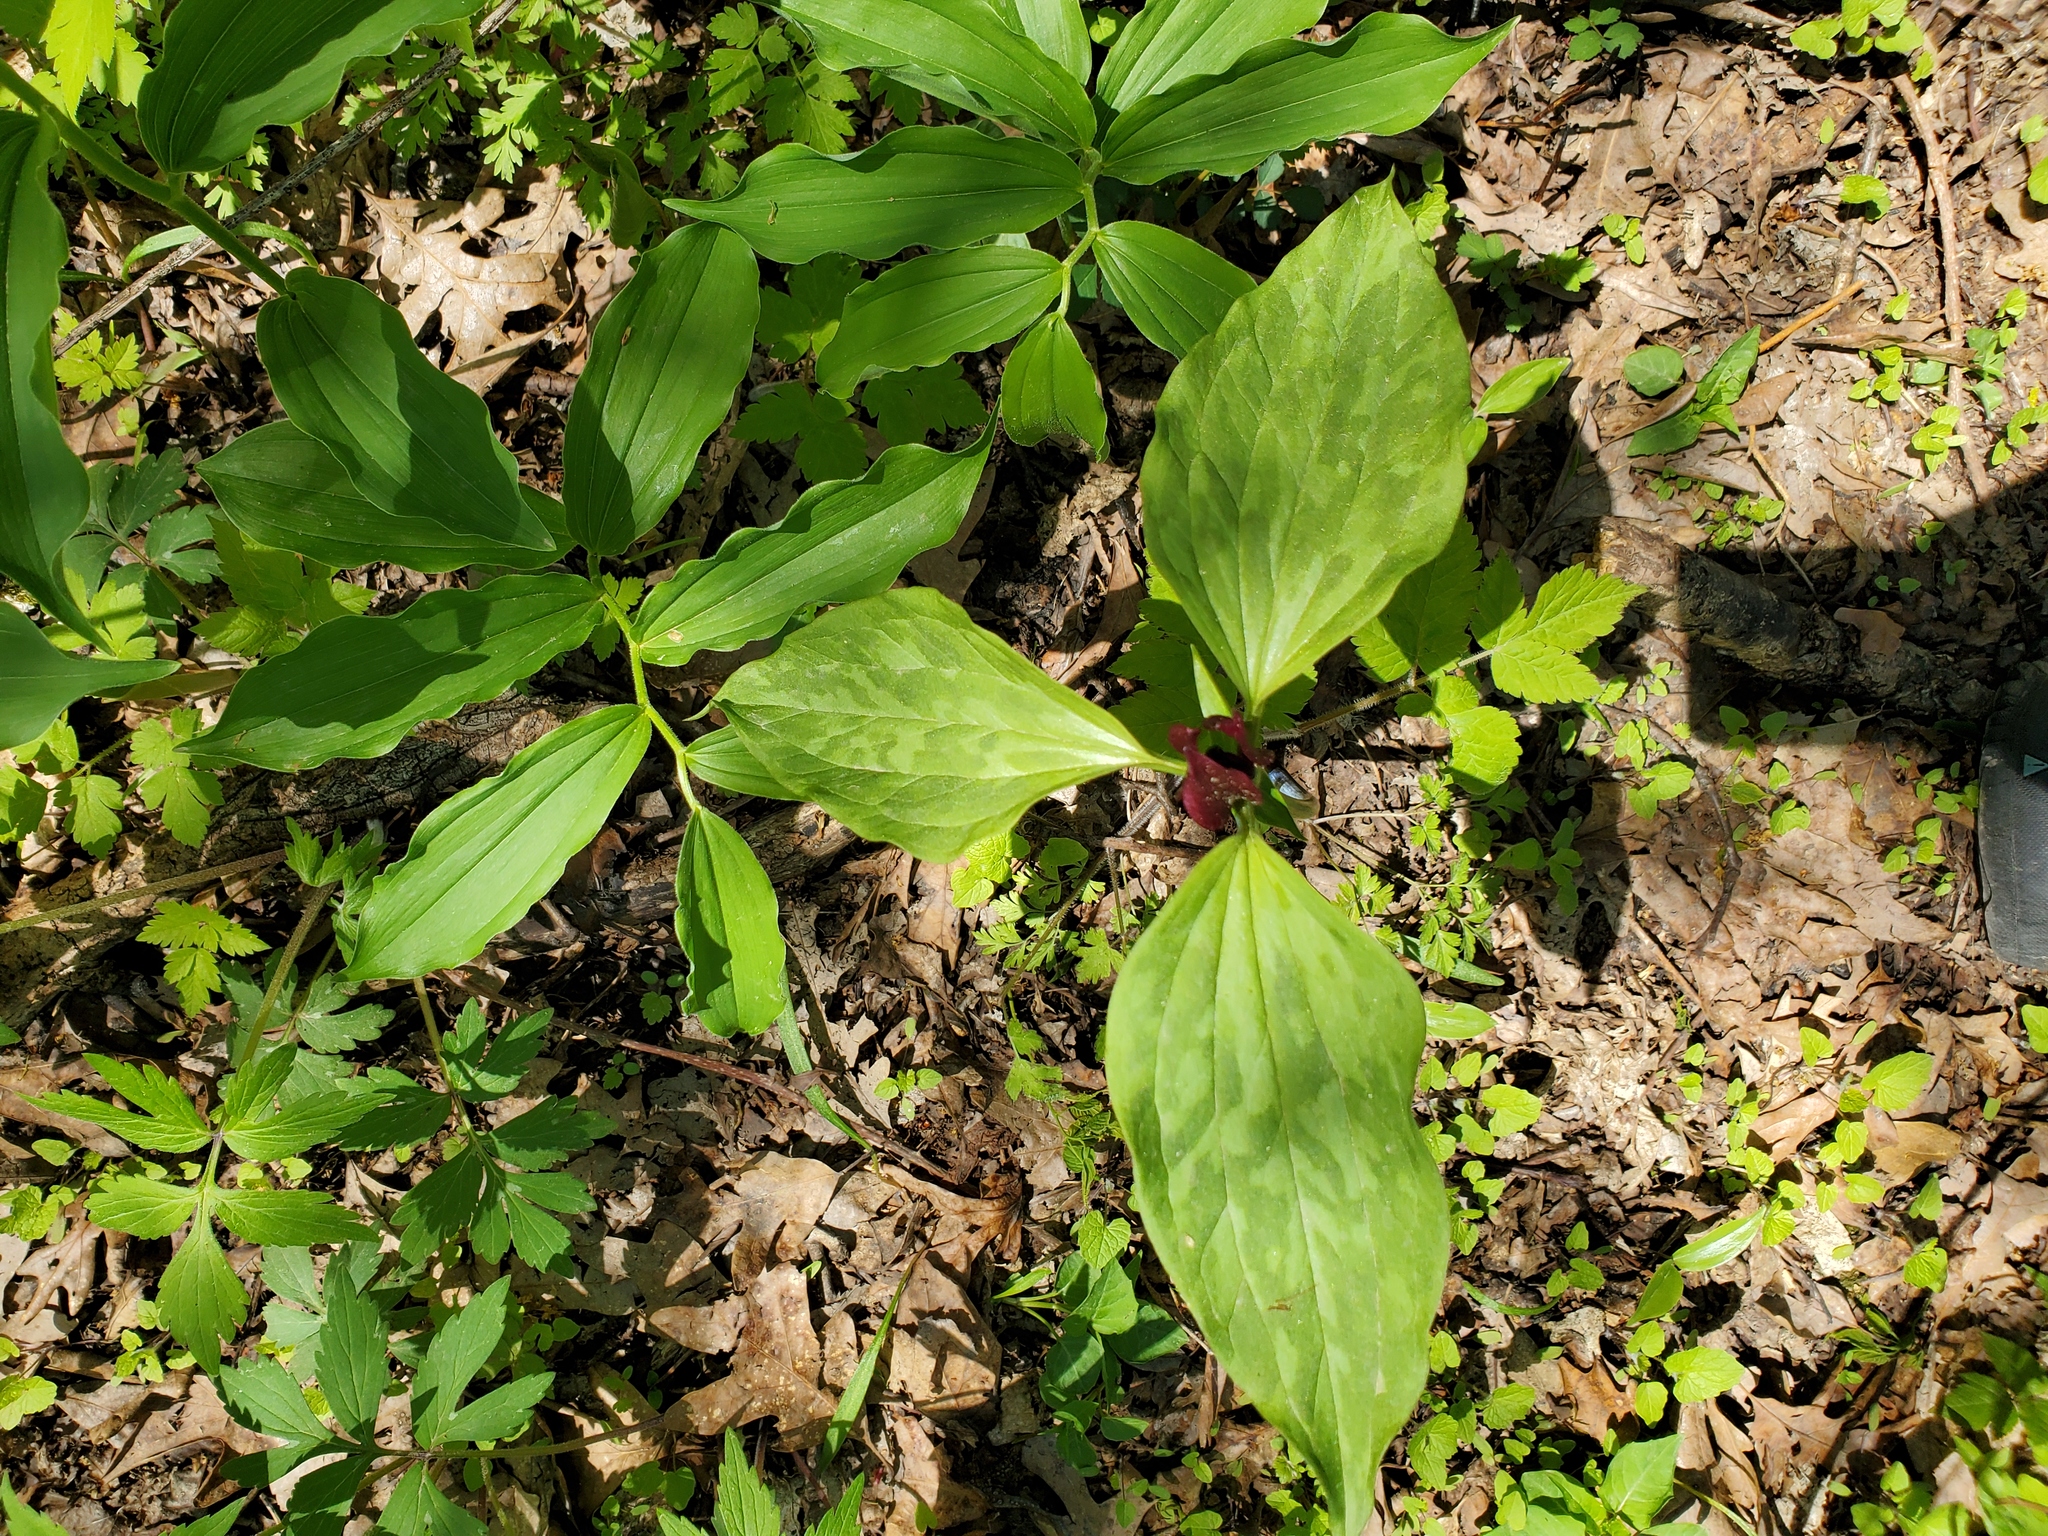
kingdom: Plantae
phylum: Tracheophyta
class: Liliopsida
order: Liliales
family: Melanthiaceae
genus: Trillium
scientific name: Trillium recurvatum
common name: Bloody butcher
